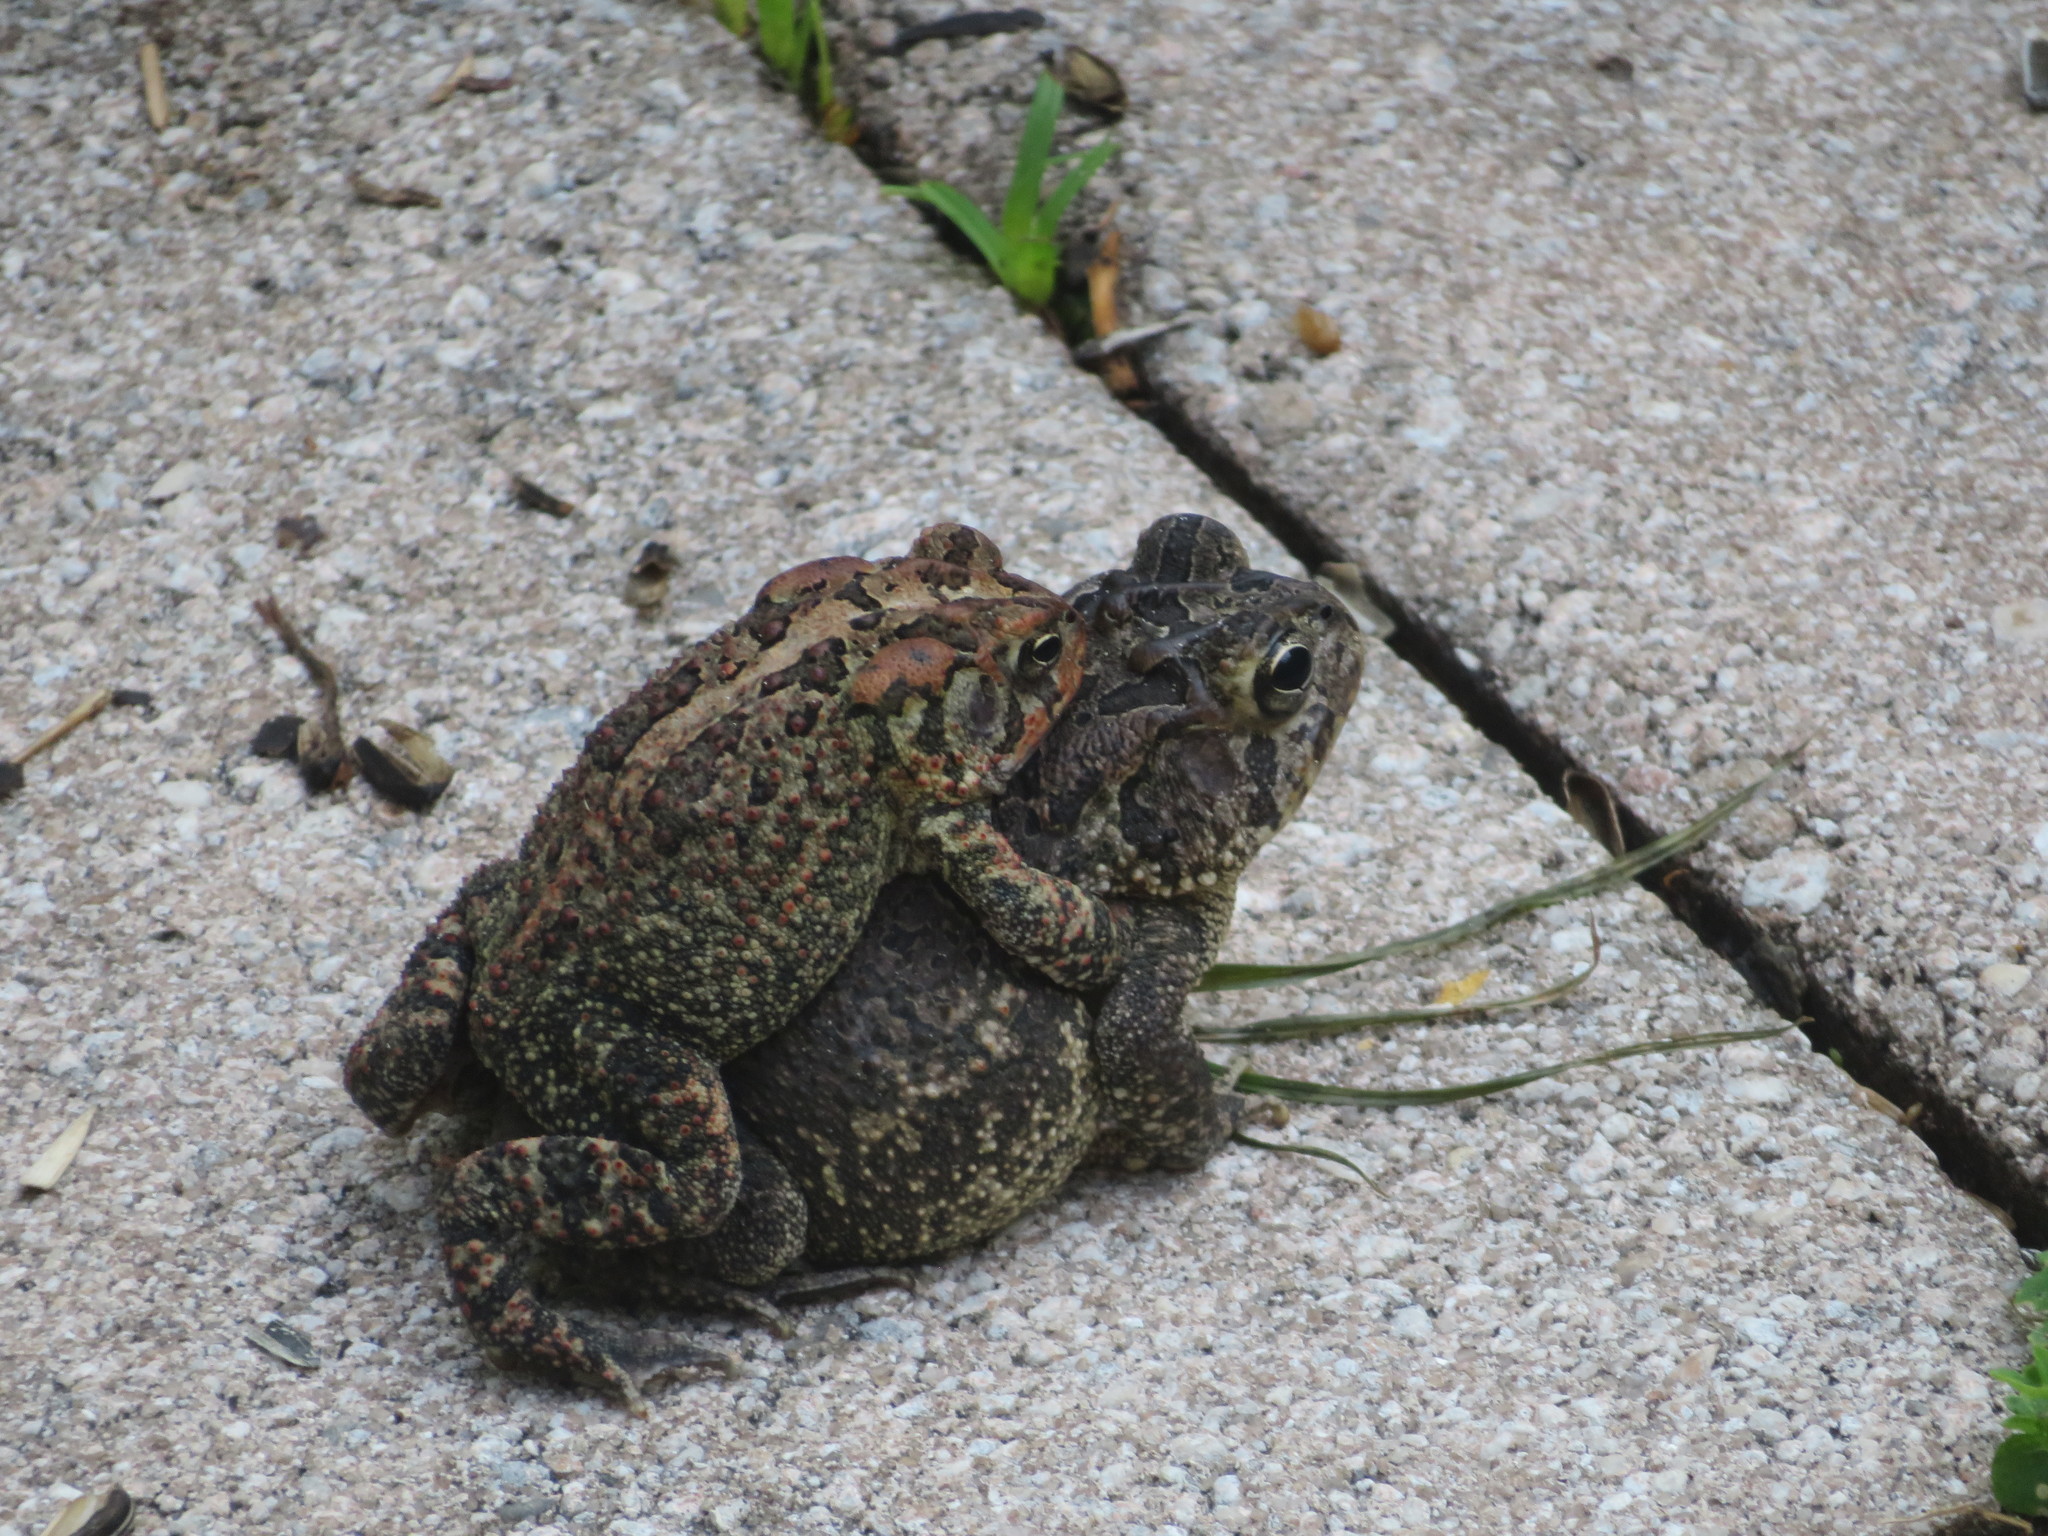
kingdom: Animalia
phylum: Chordata
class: Amphibia
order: Anura
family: Bufonidae
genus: Anaxyrus
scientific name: Anaxyrus terrestris
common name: Southern toad
